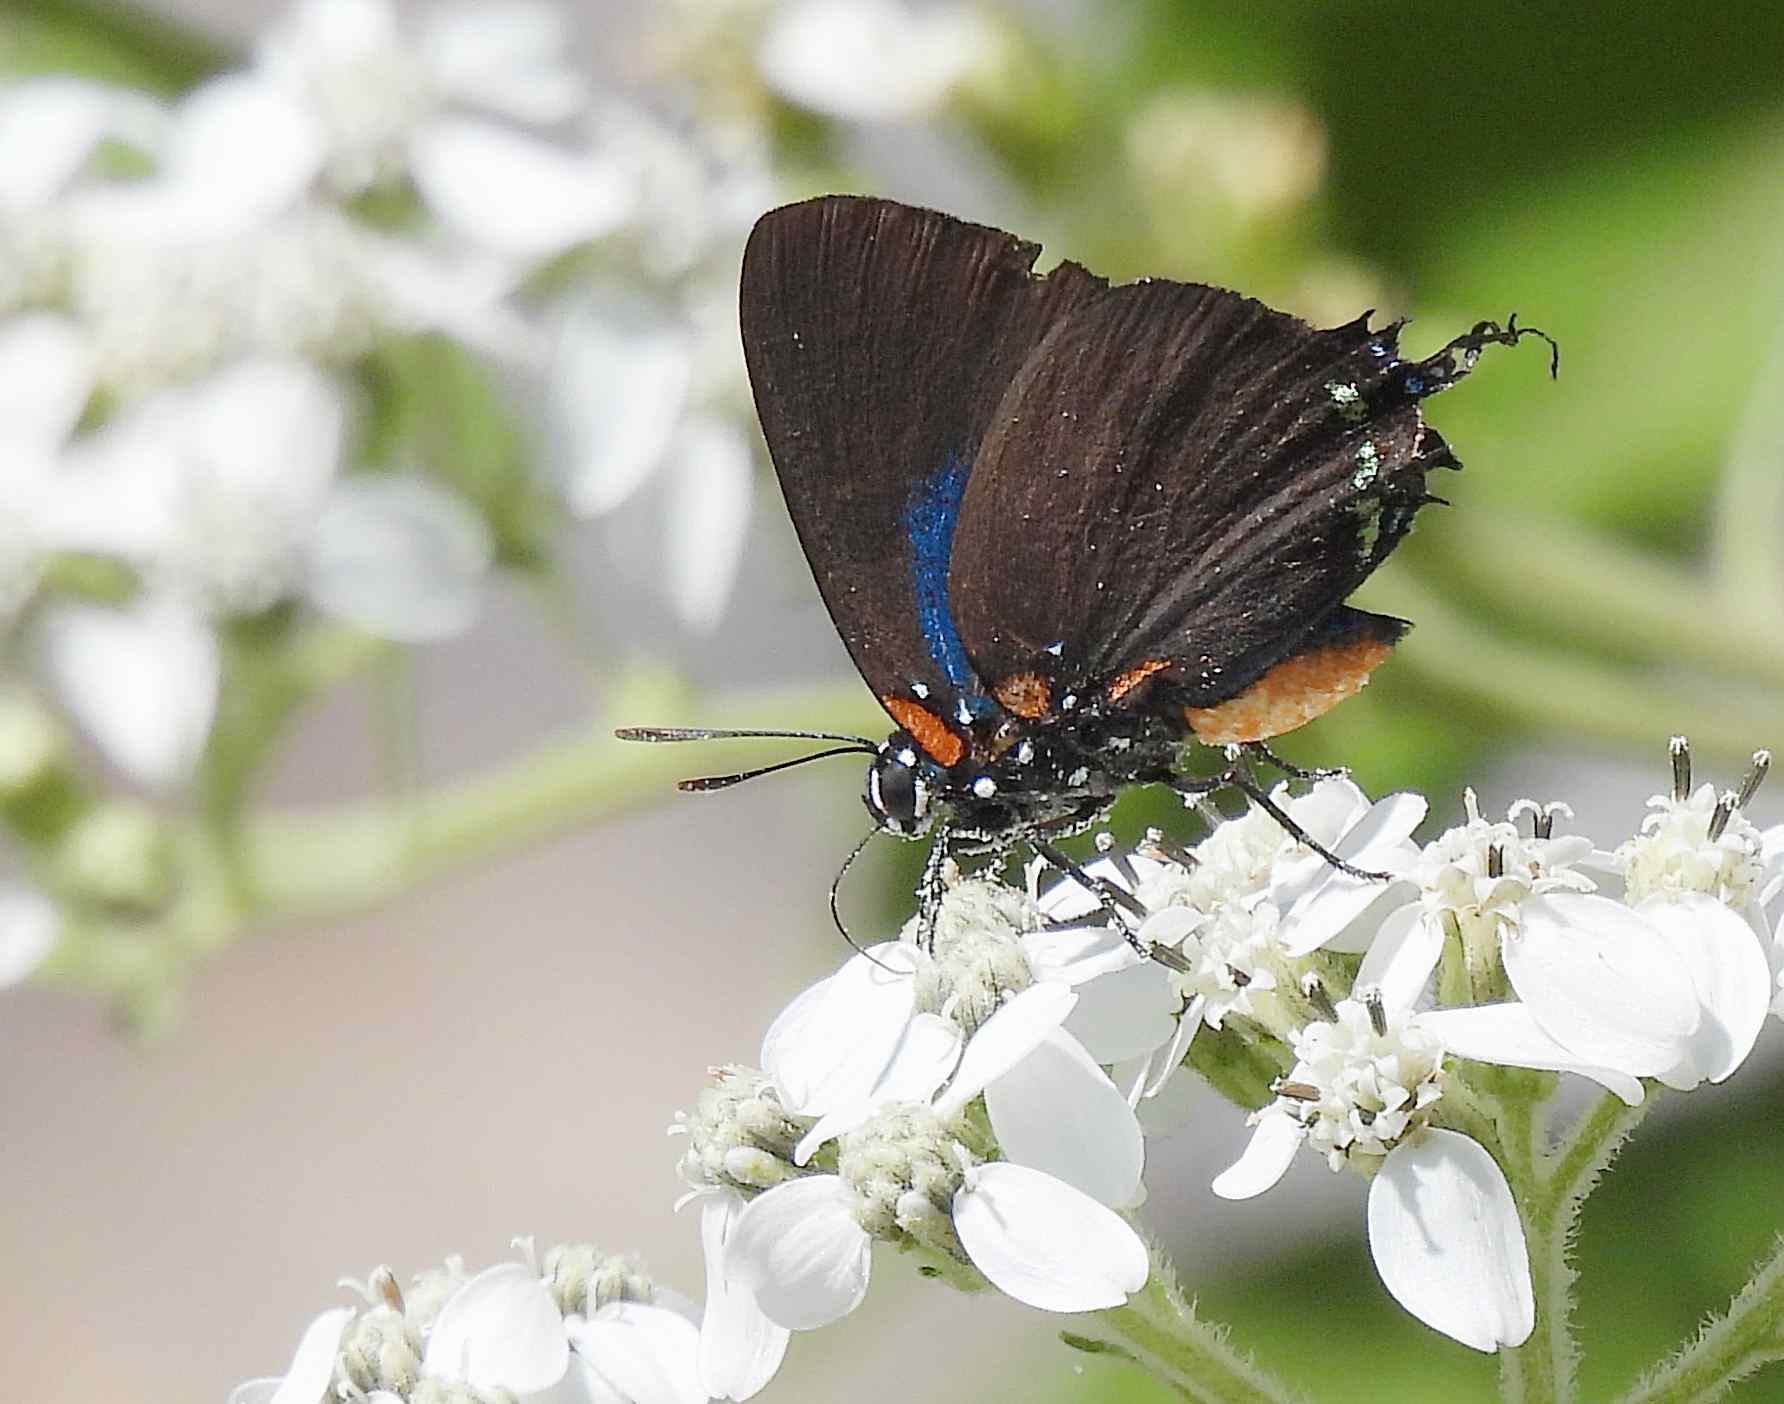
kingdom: Animalia
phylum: Arthropoda
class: Insecta
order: Lepidoptera
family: Lycaenidae
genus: Atlides
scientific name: Atlides halesus
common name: Great purple hairstreak
